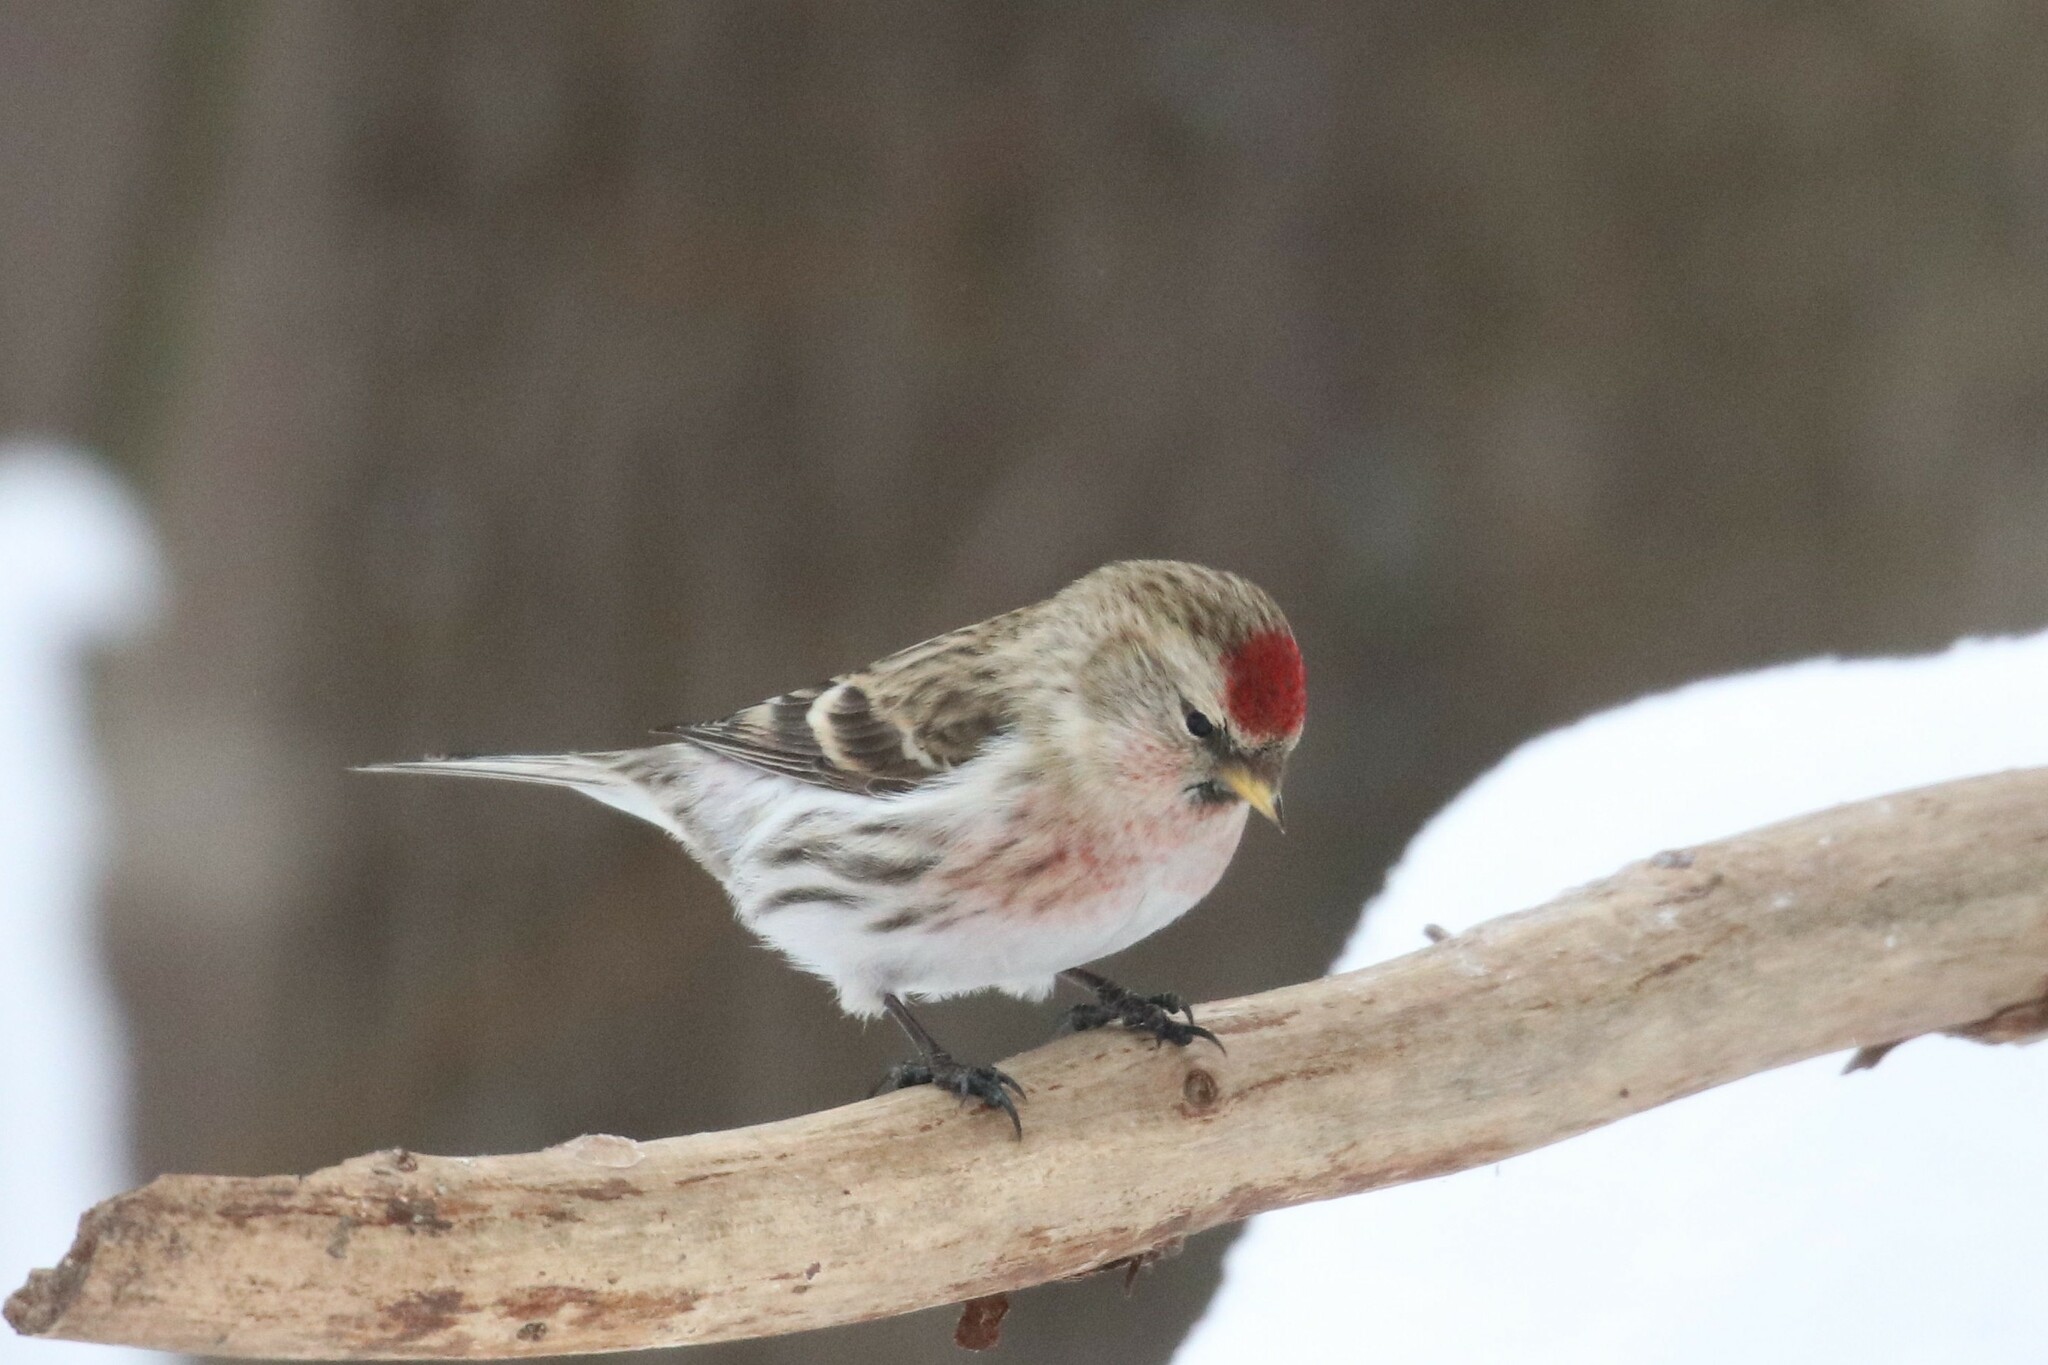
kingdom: Animalia
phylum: Chordata
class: Aves
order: Passeriformes
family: Fringillidae
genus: Acanthis
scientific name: Acanthis flammea
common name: Common redpoll
